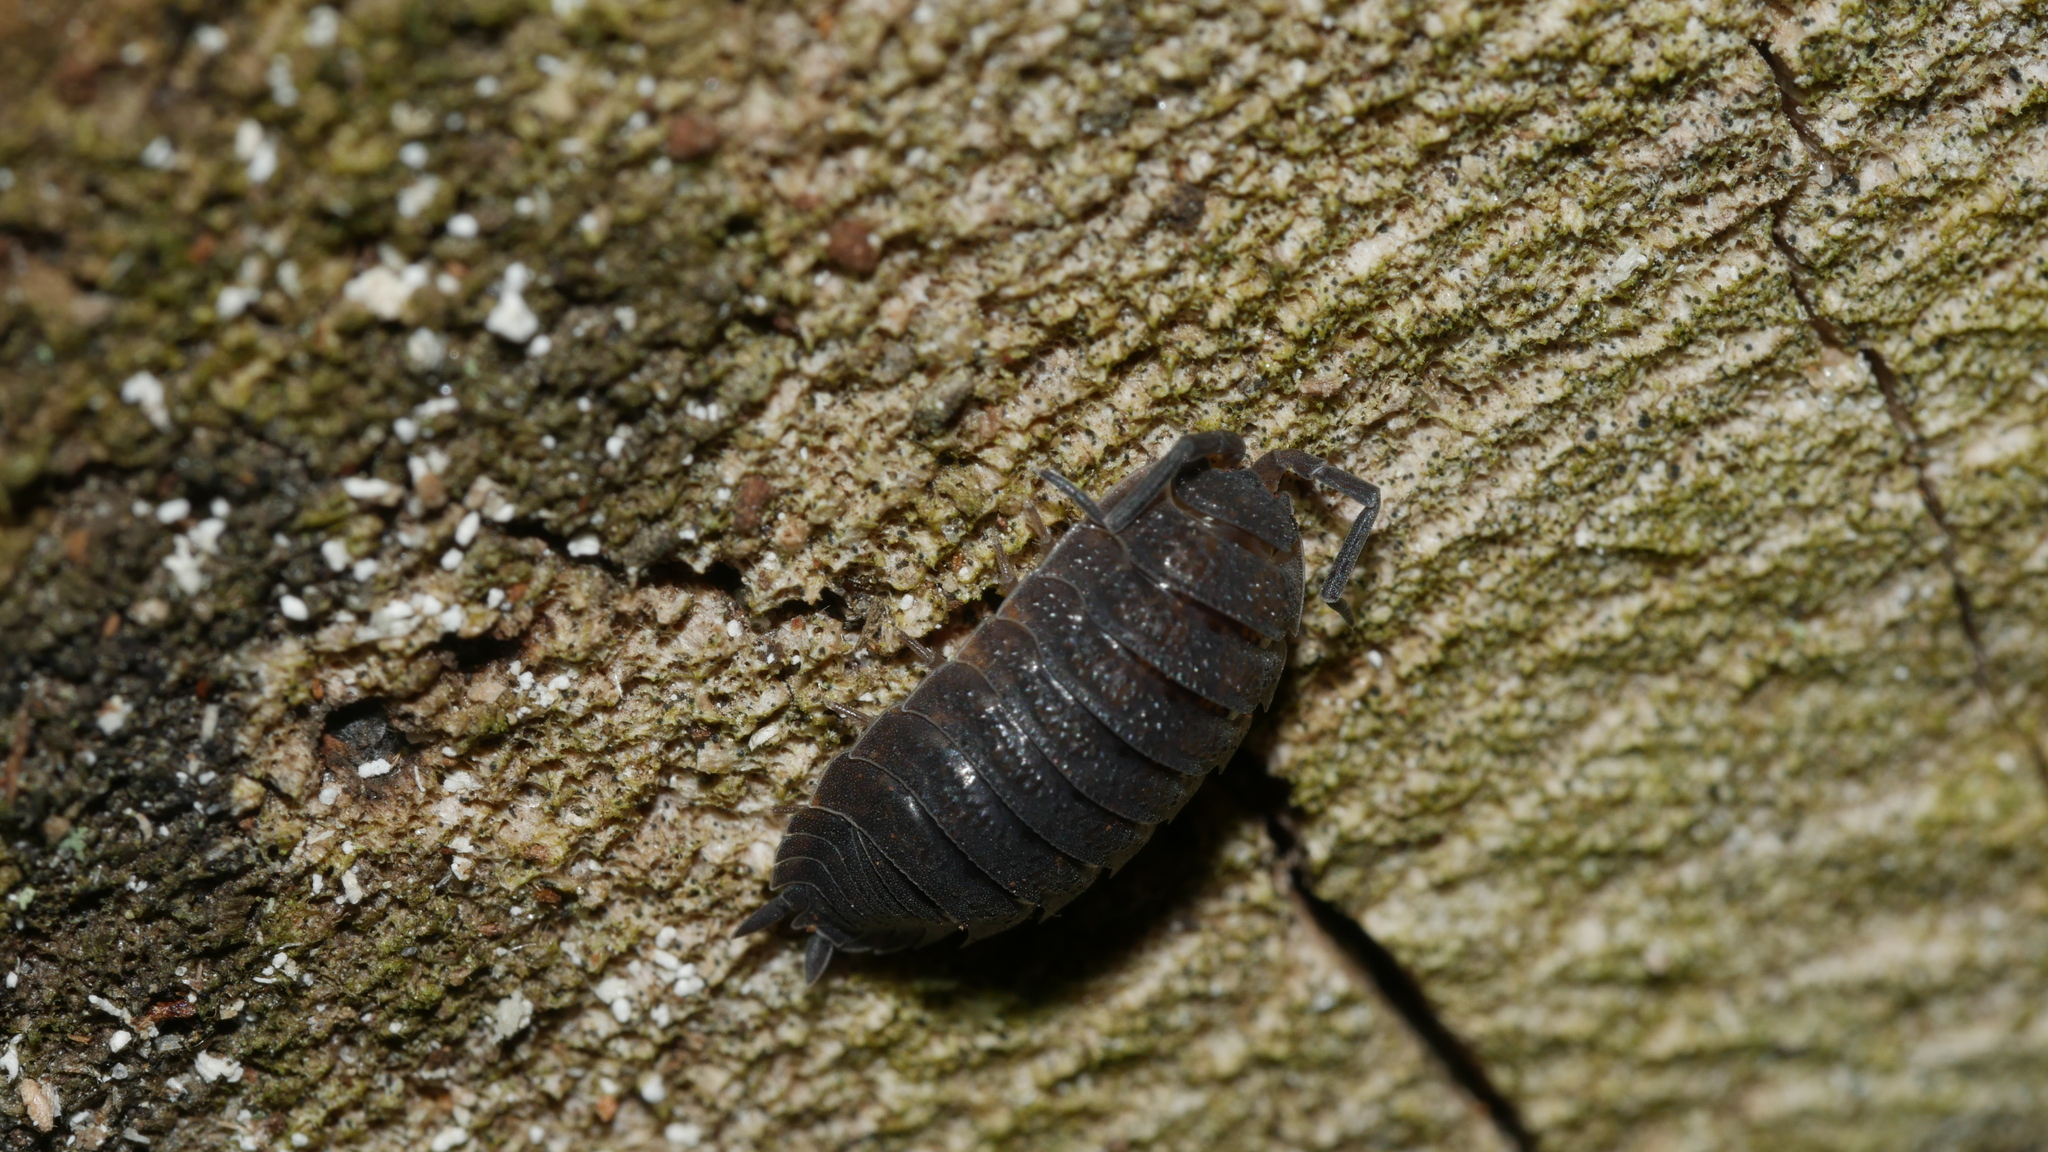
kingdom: Animalia
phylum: Arthropoda
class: Malacostraca
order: Isopoda
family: Porcellionidae
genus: Porcellio
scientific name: Porcellio scaber
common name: Common rough woodlouse
